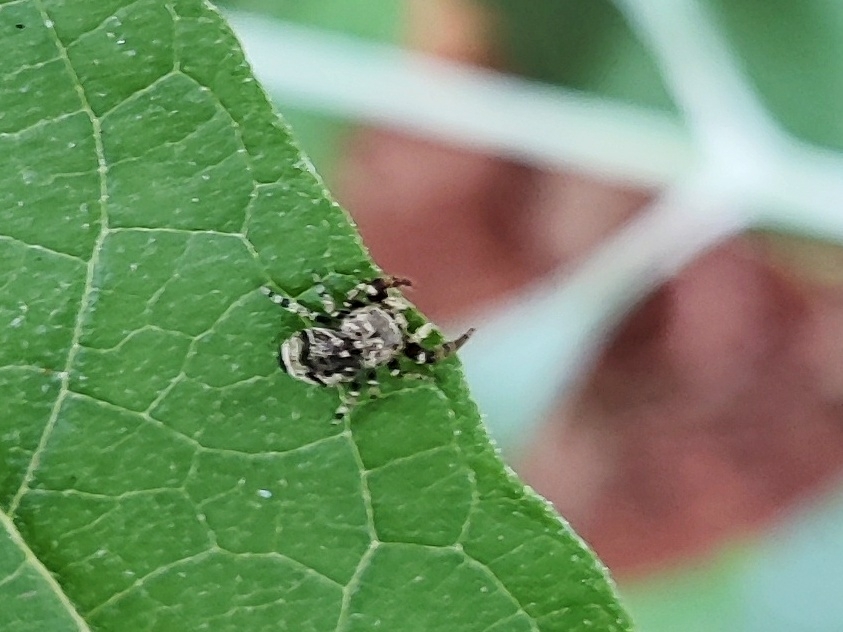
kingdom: Animalia
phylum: Arthropoda
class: Arachnida
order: Araneae
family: Salticidae
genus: Rhene
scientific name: Rhene flavigera
